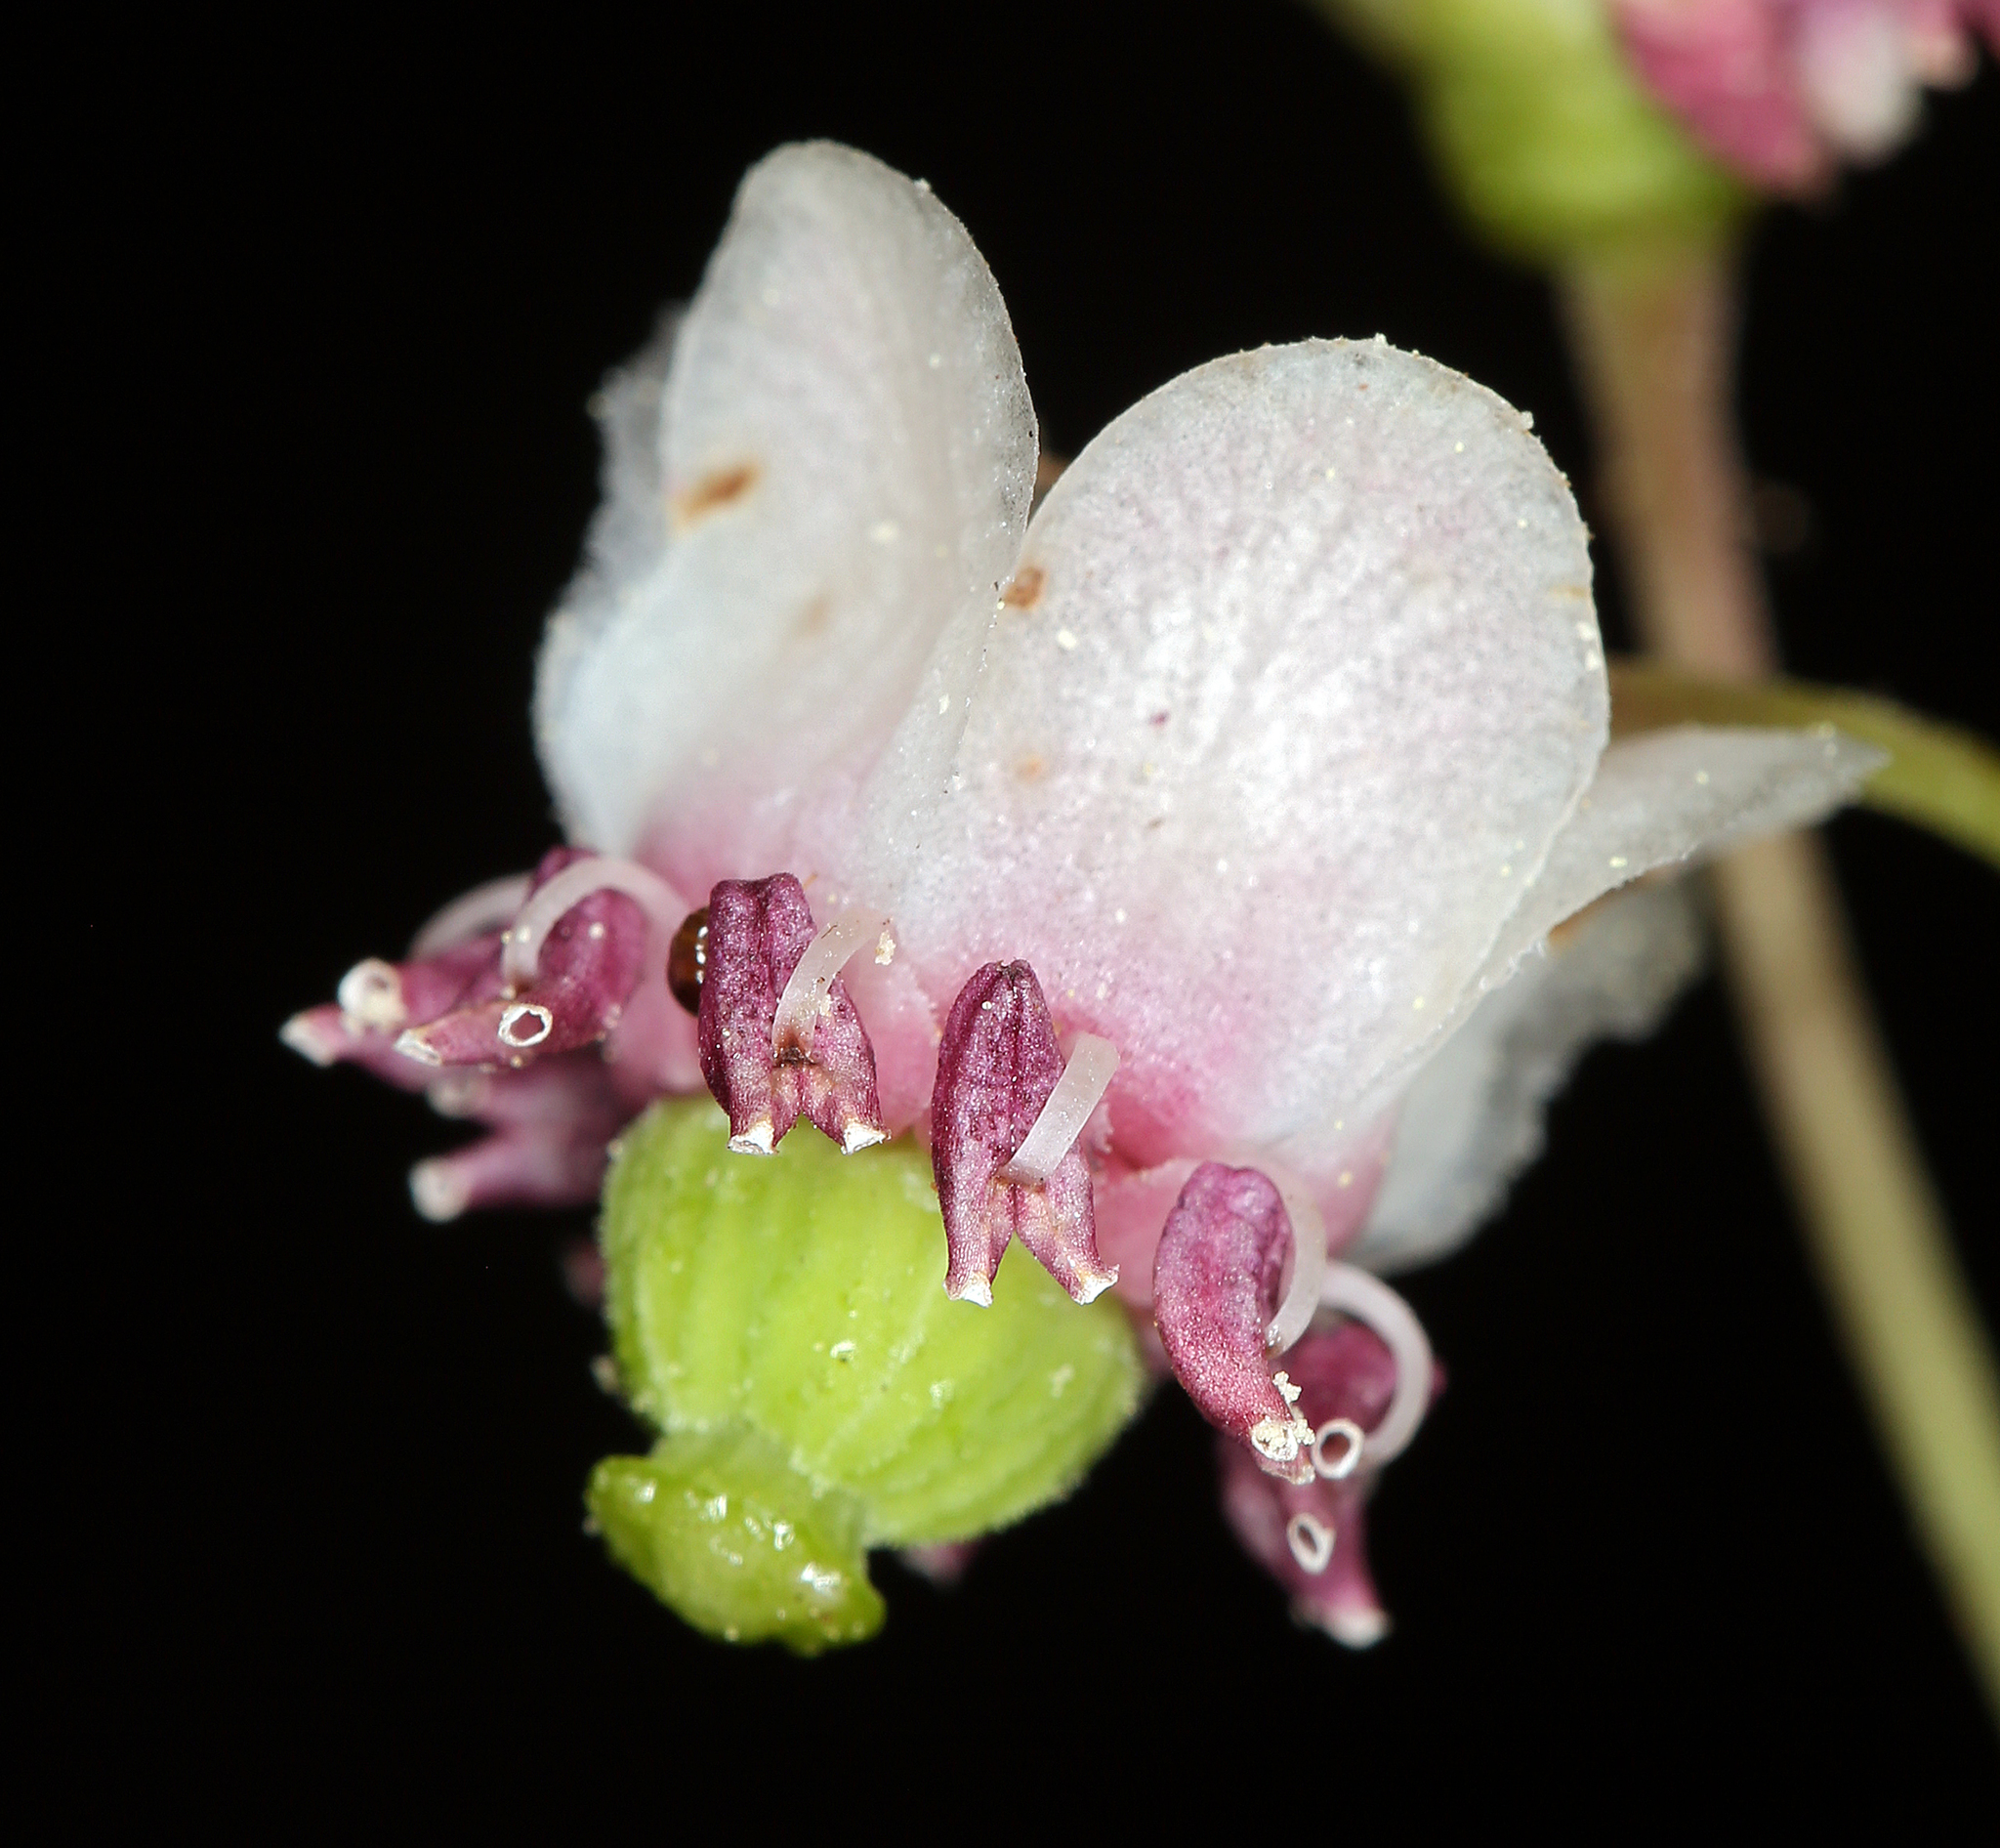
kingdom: Plantae
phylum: Tracheophyta
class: Magnoliopsida
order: Ericales
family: Ericaceae
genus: Chimaphila
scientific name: Chimaphila umbellata
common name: Pipsissewa
